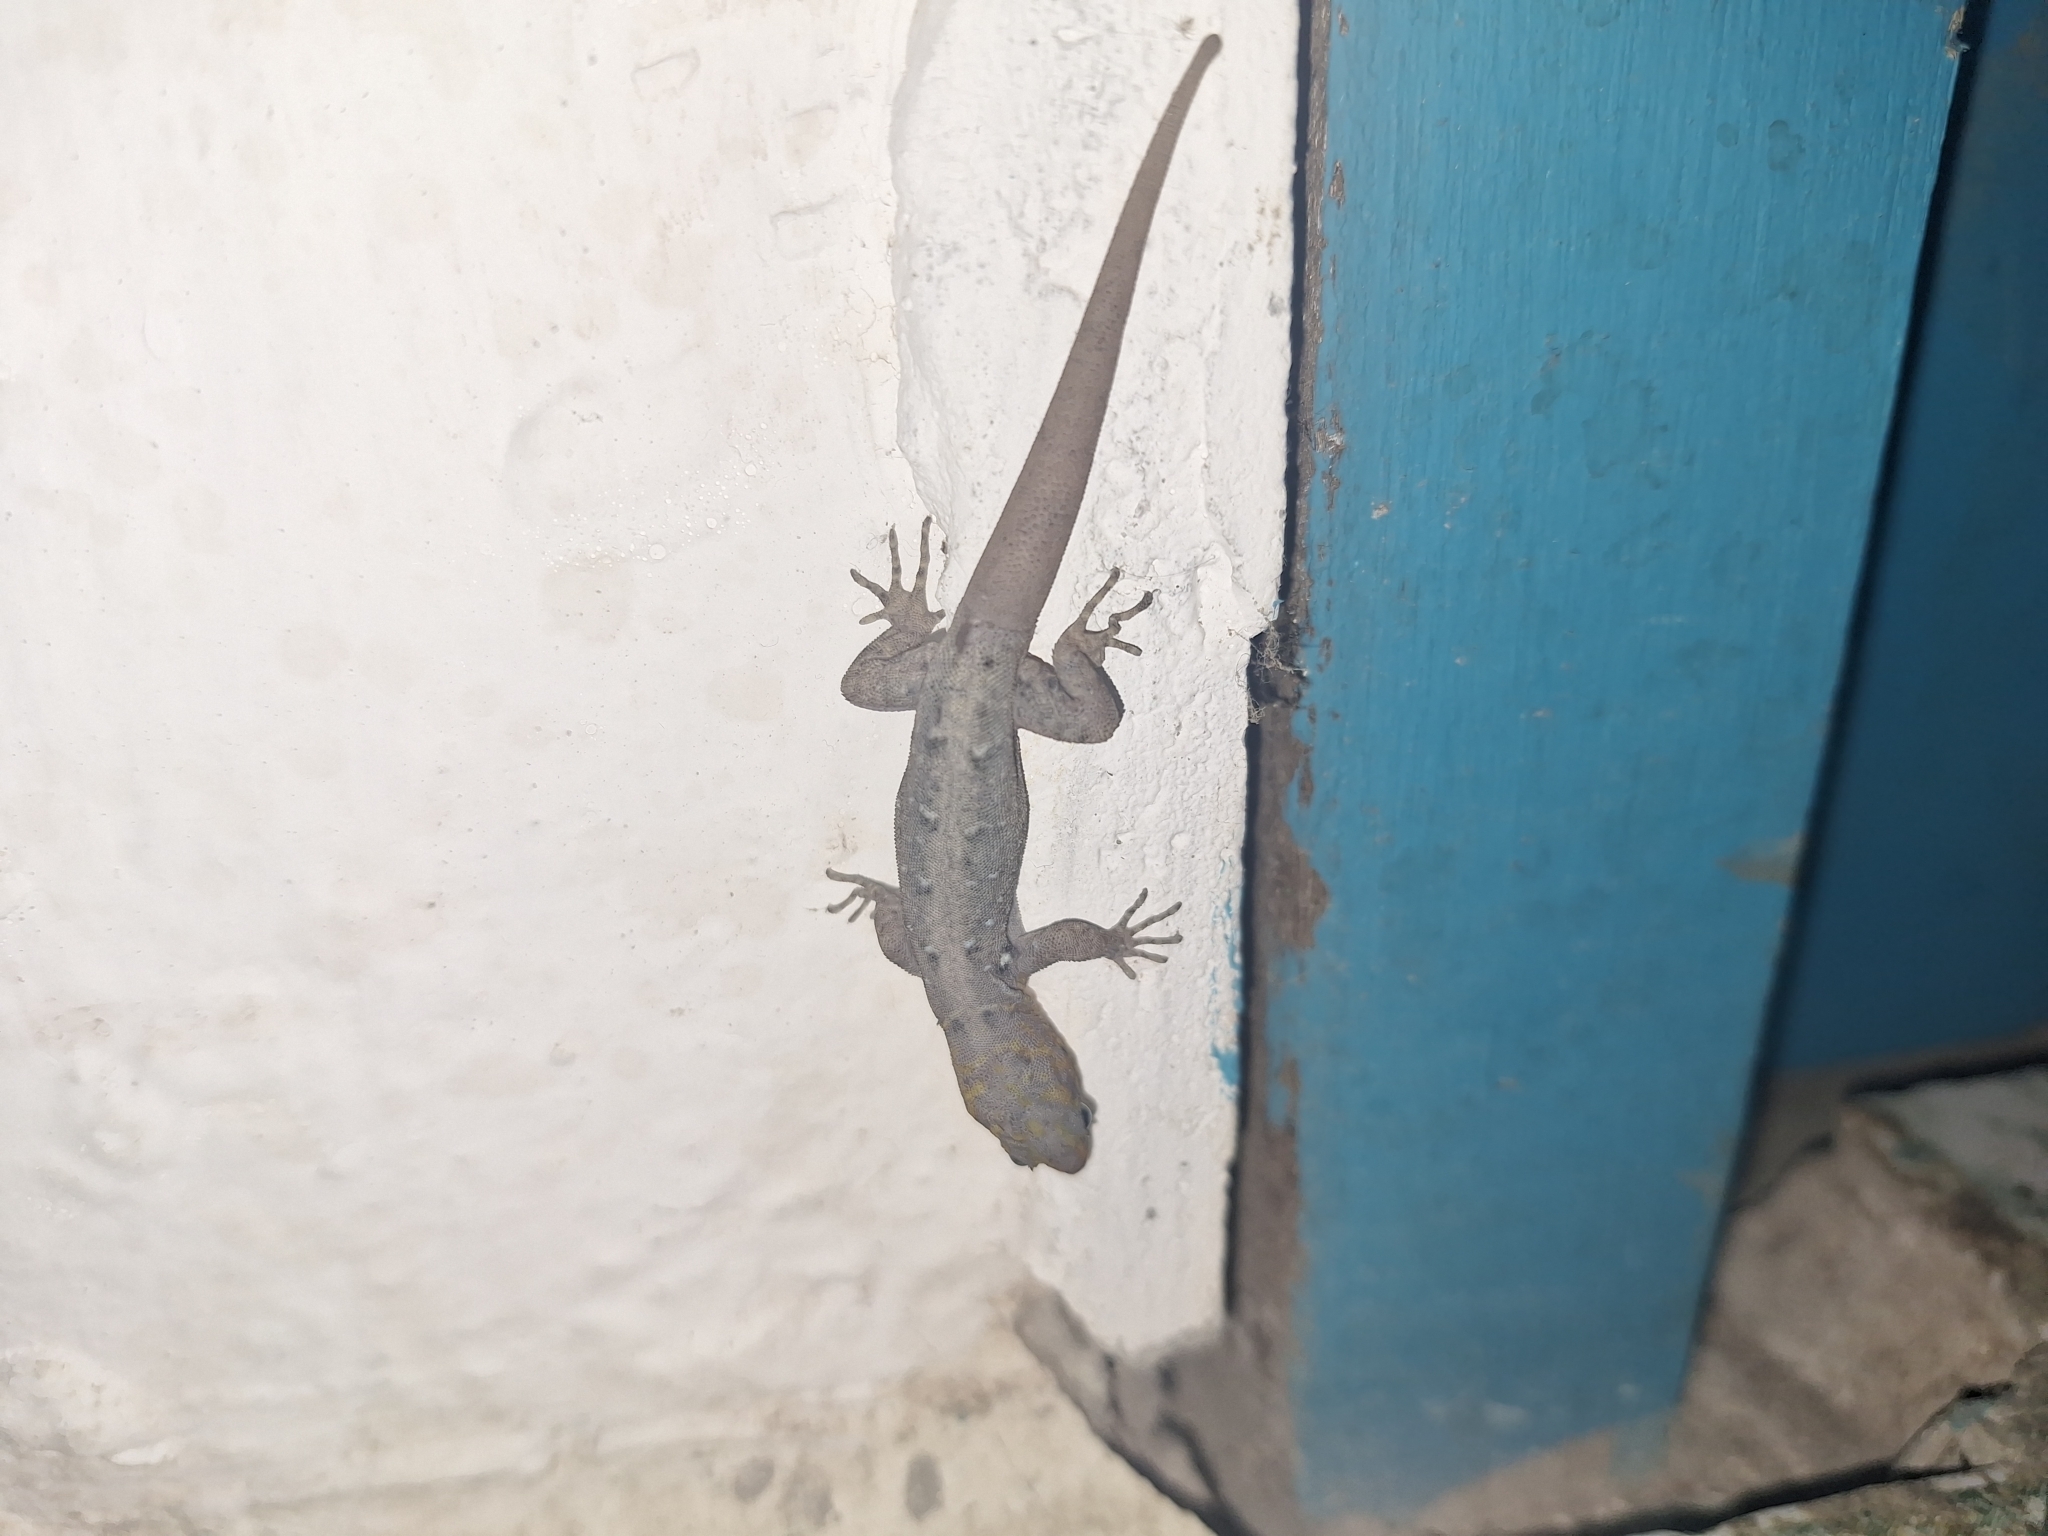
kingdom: Animalia
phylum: Chordata
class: Squamata
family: Sphaerodactylidae
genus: Gonatodes
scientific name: Gonatodes caudiscutatus
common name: Shieldhead gecko
